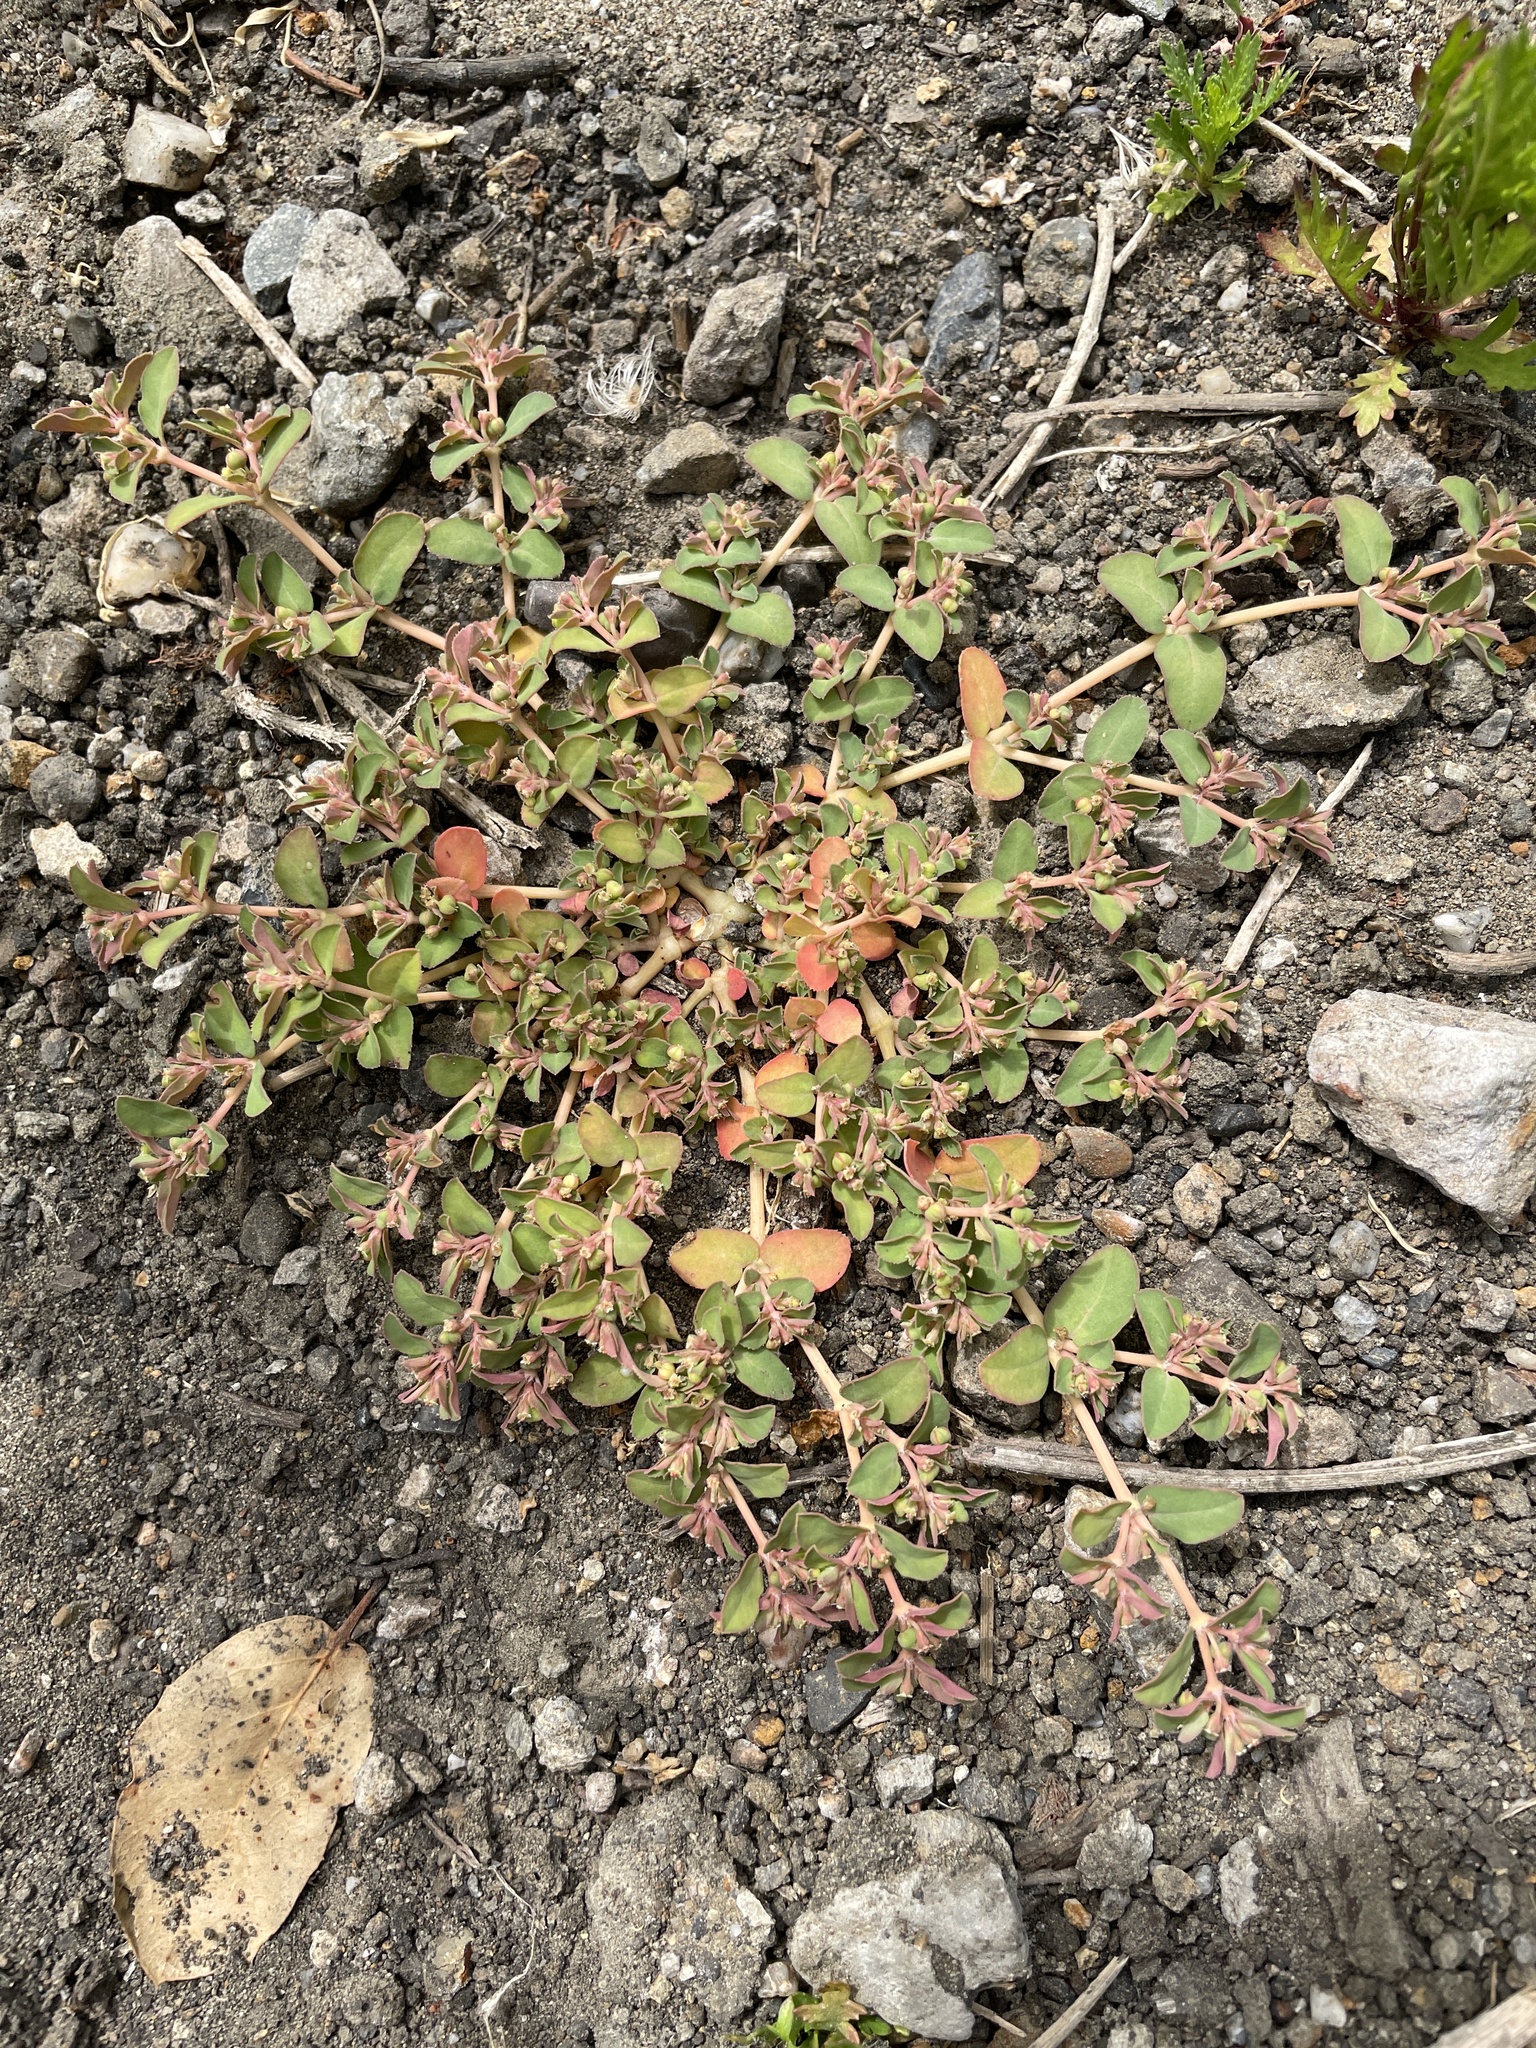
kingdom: Plantae
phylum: Tracheophyta
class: Magnoliopsida
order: Malpighiales
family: Euphorbiaceae
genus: Euphorbia
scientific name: Euphorbia serpillifolia
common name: Thyme-leaf spurge
